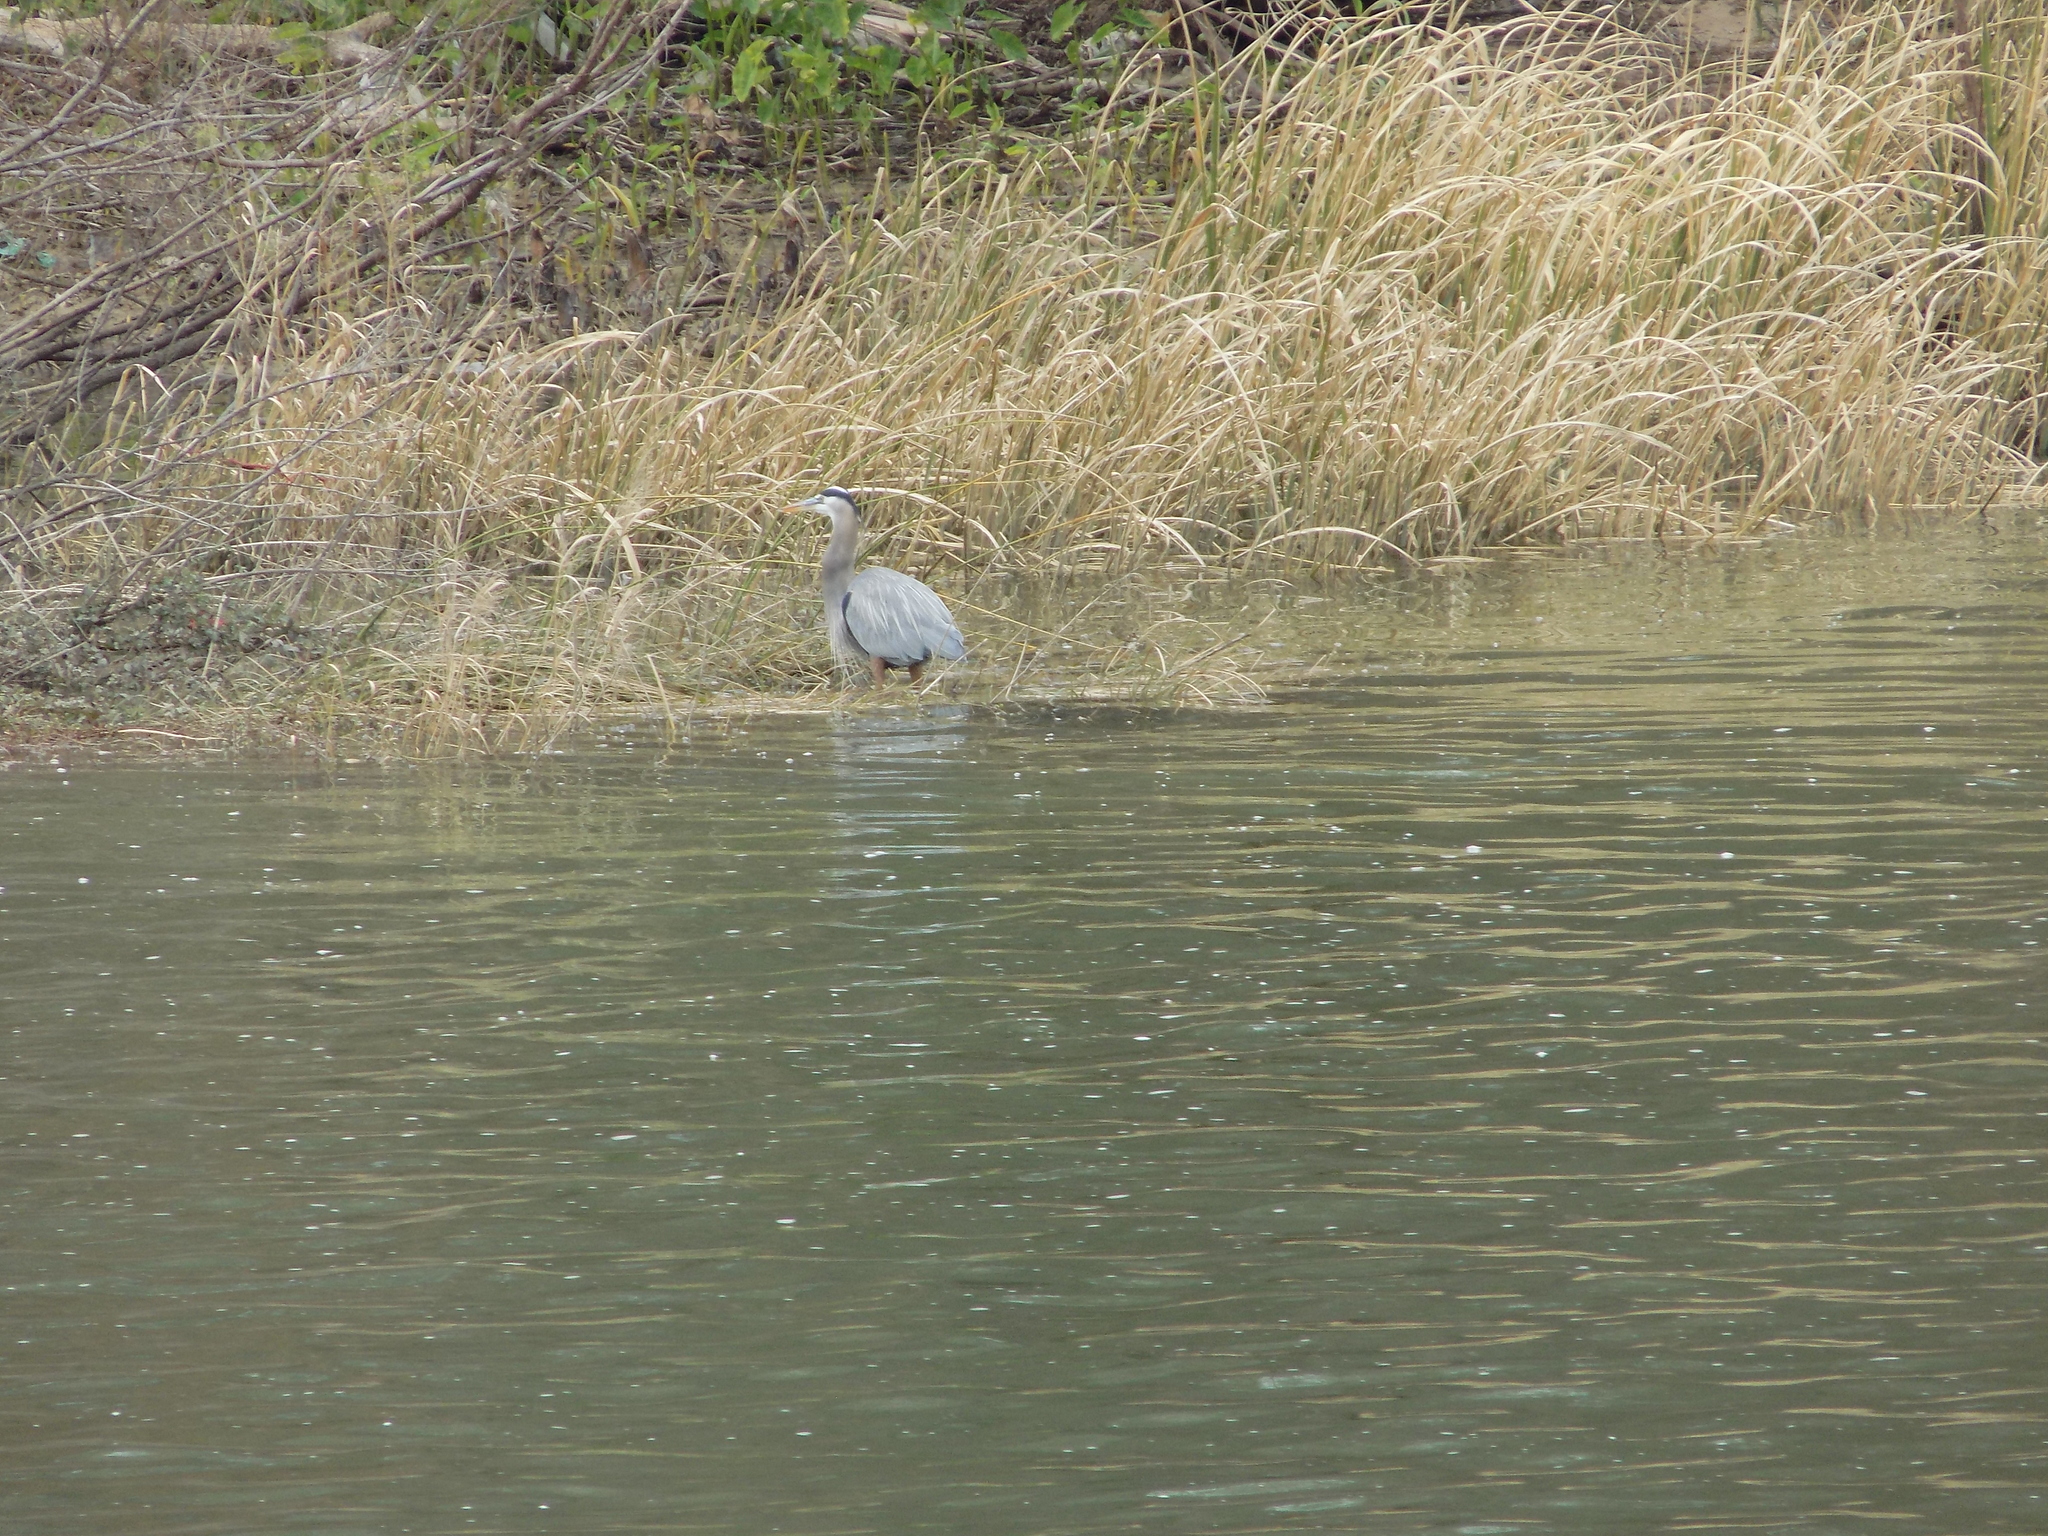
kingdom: Animalia
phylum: Chordata
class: Aves
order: Pelecaniformes
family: Ardeidae
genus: Ardea
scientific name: Ardea herodias
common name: Great blue heron
